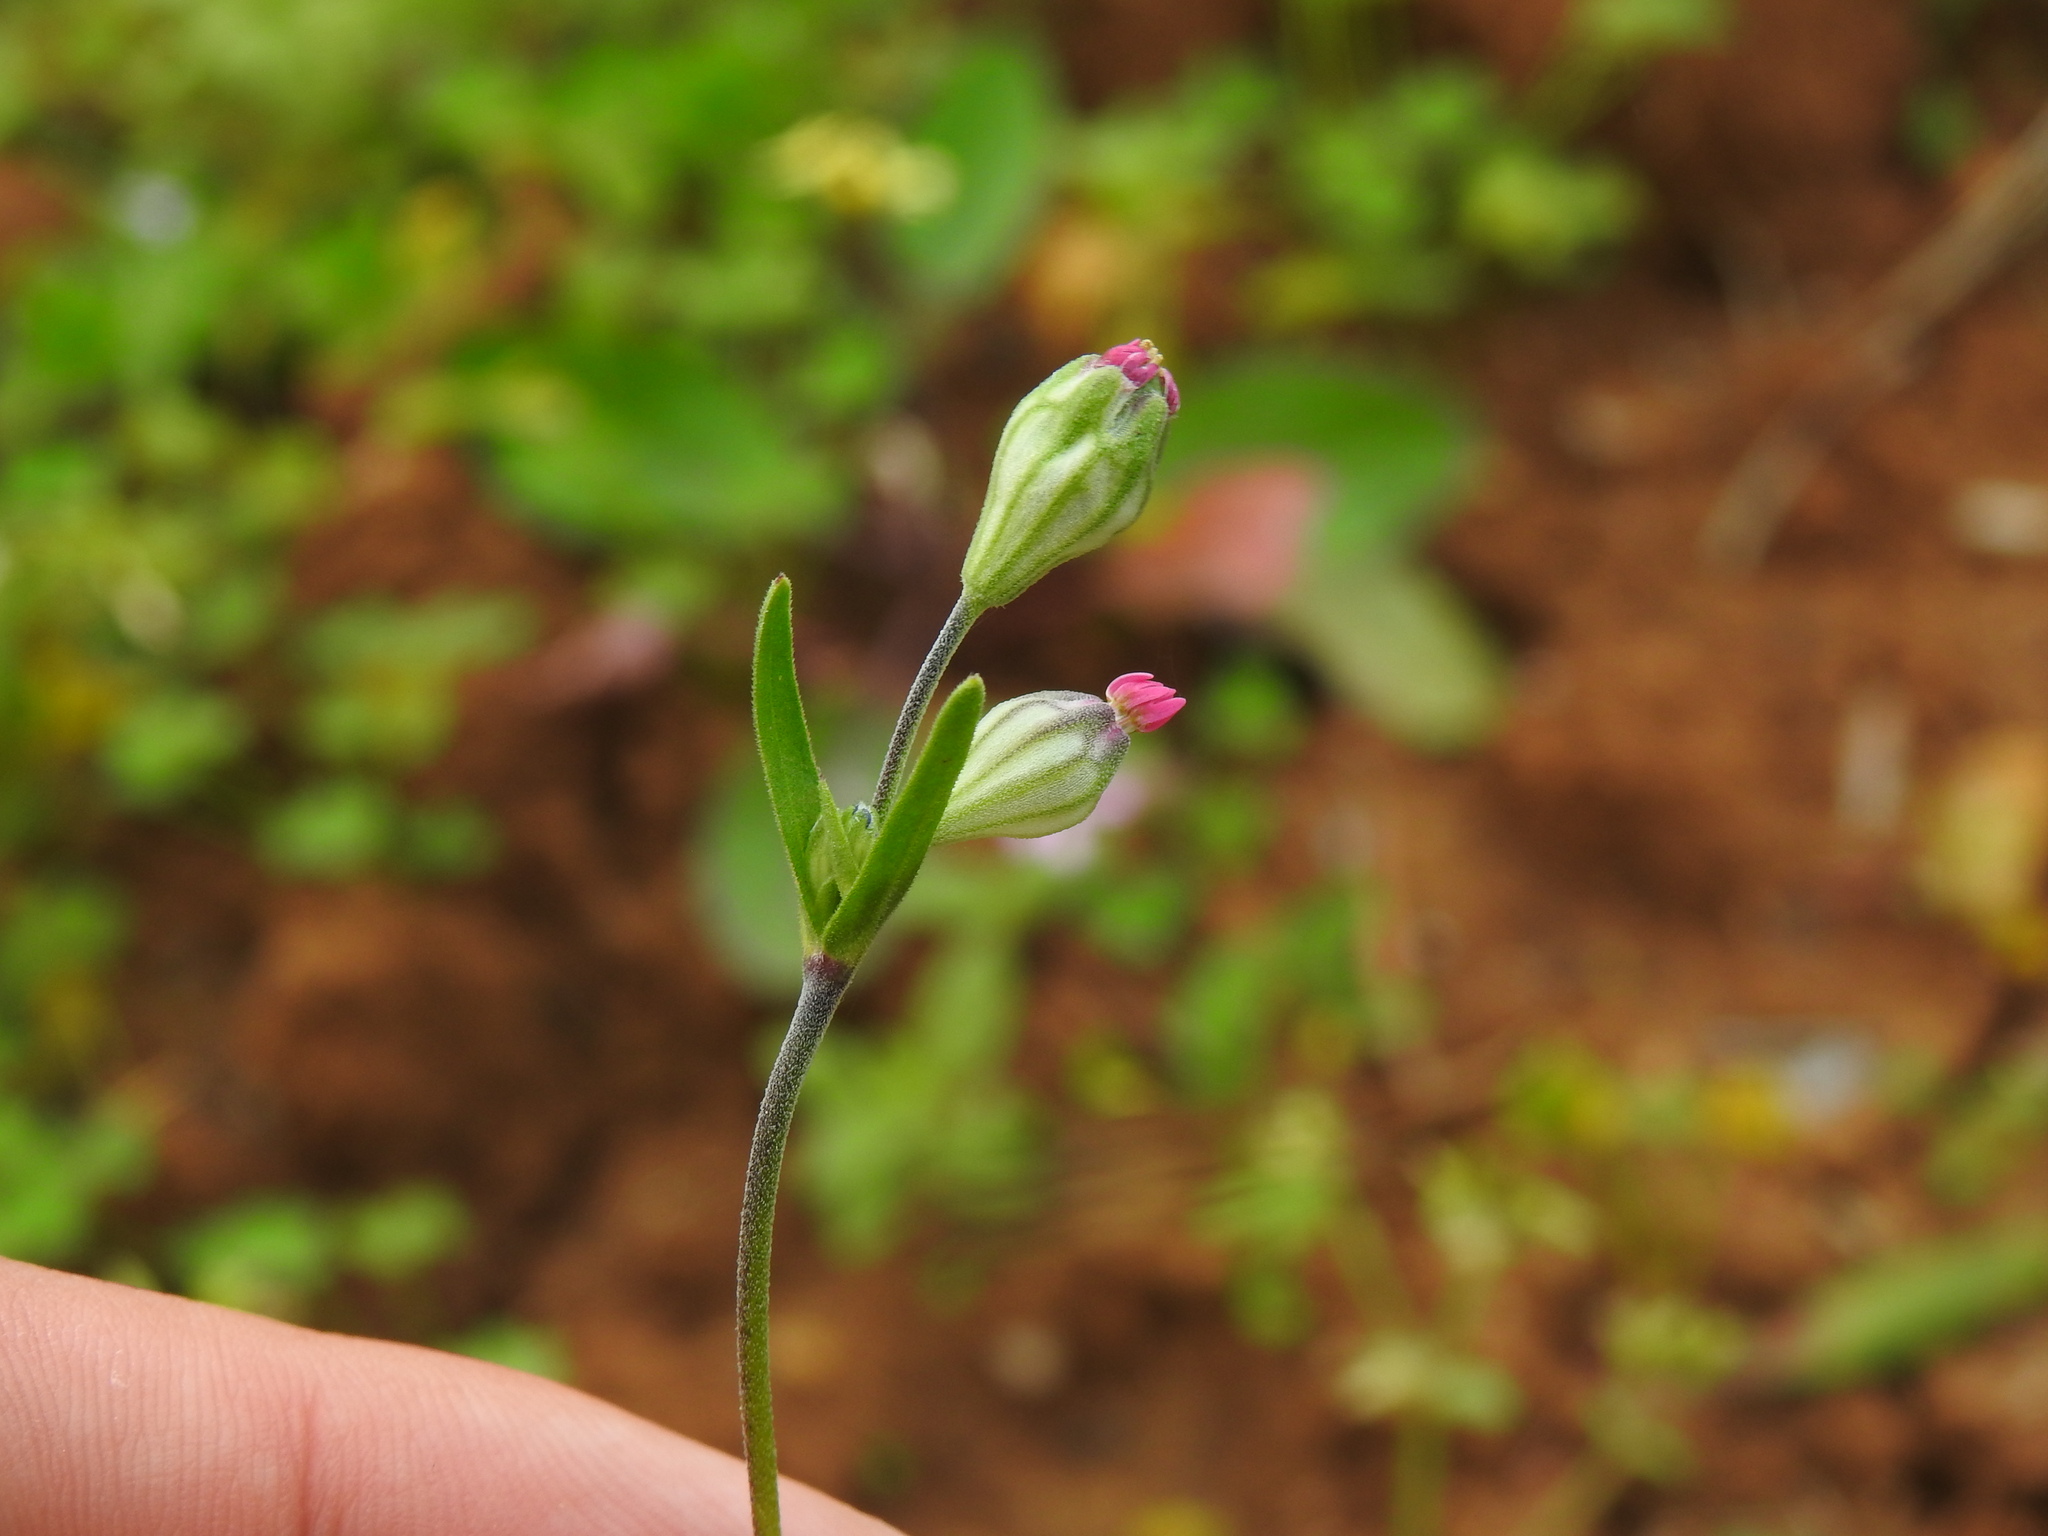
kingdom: Plantae
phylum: Tracheophyta
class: Magnoliopsida
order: Caryophyllales
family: Caryophyllaceae
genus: Silene
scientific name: Silene rubella
